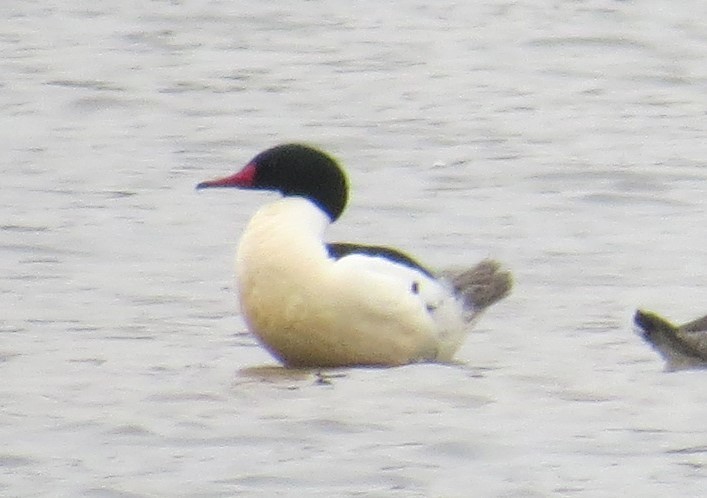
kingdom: Animalia
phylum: Chordata
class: Aves
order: Anseriformes
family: Anatidae
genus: Mergus
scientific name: Mergus merganser
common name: Common merganser
